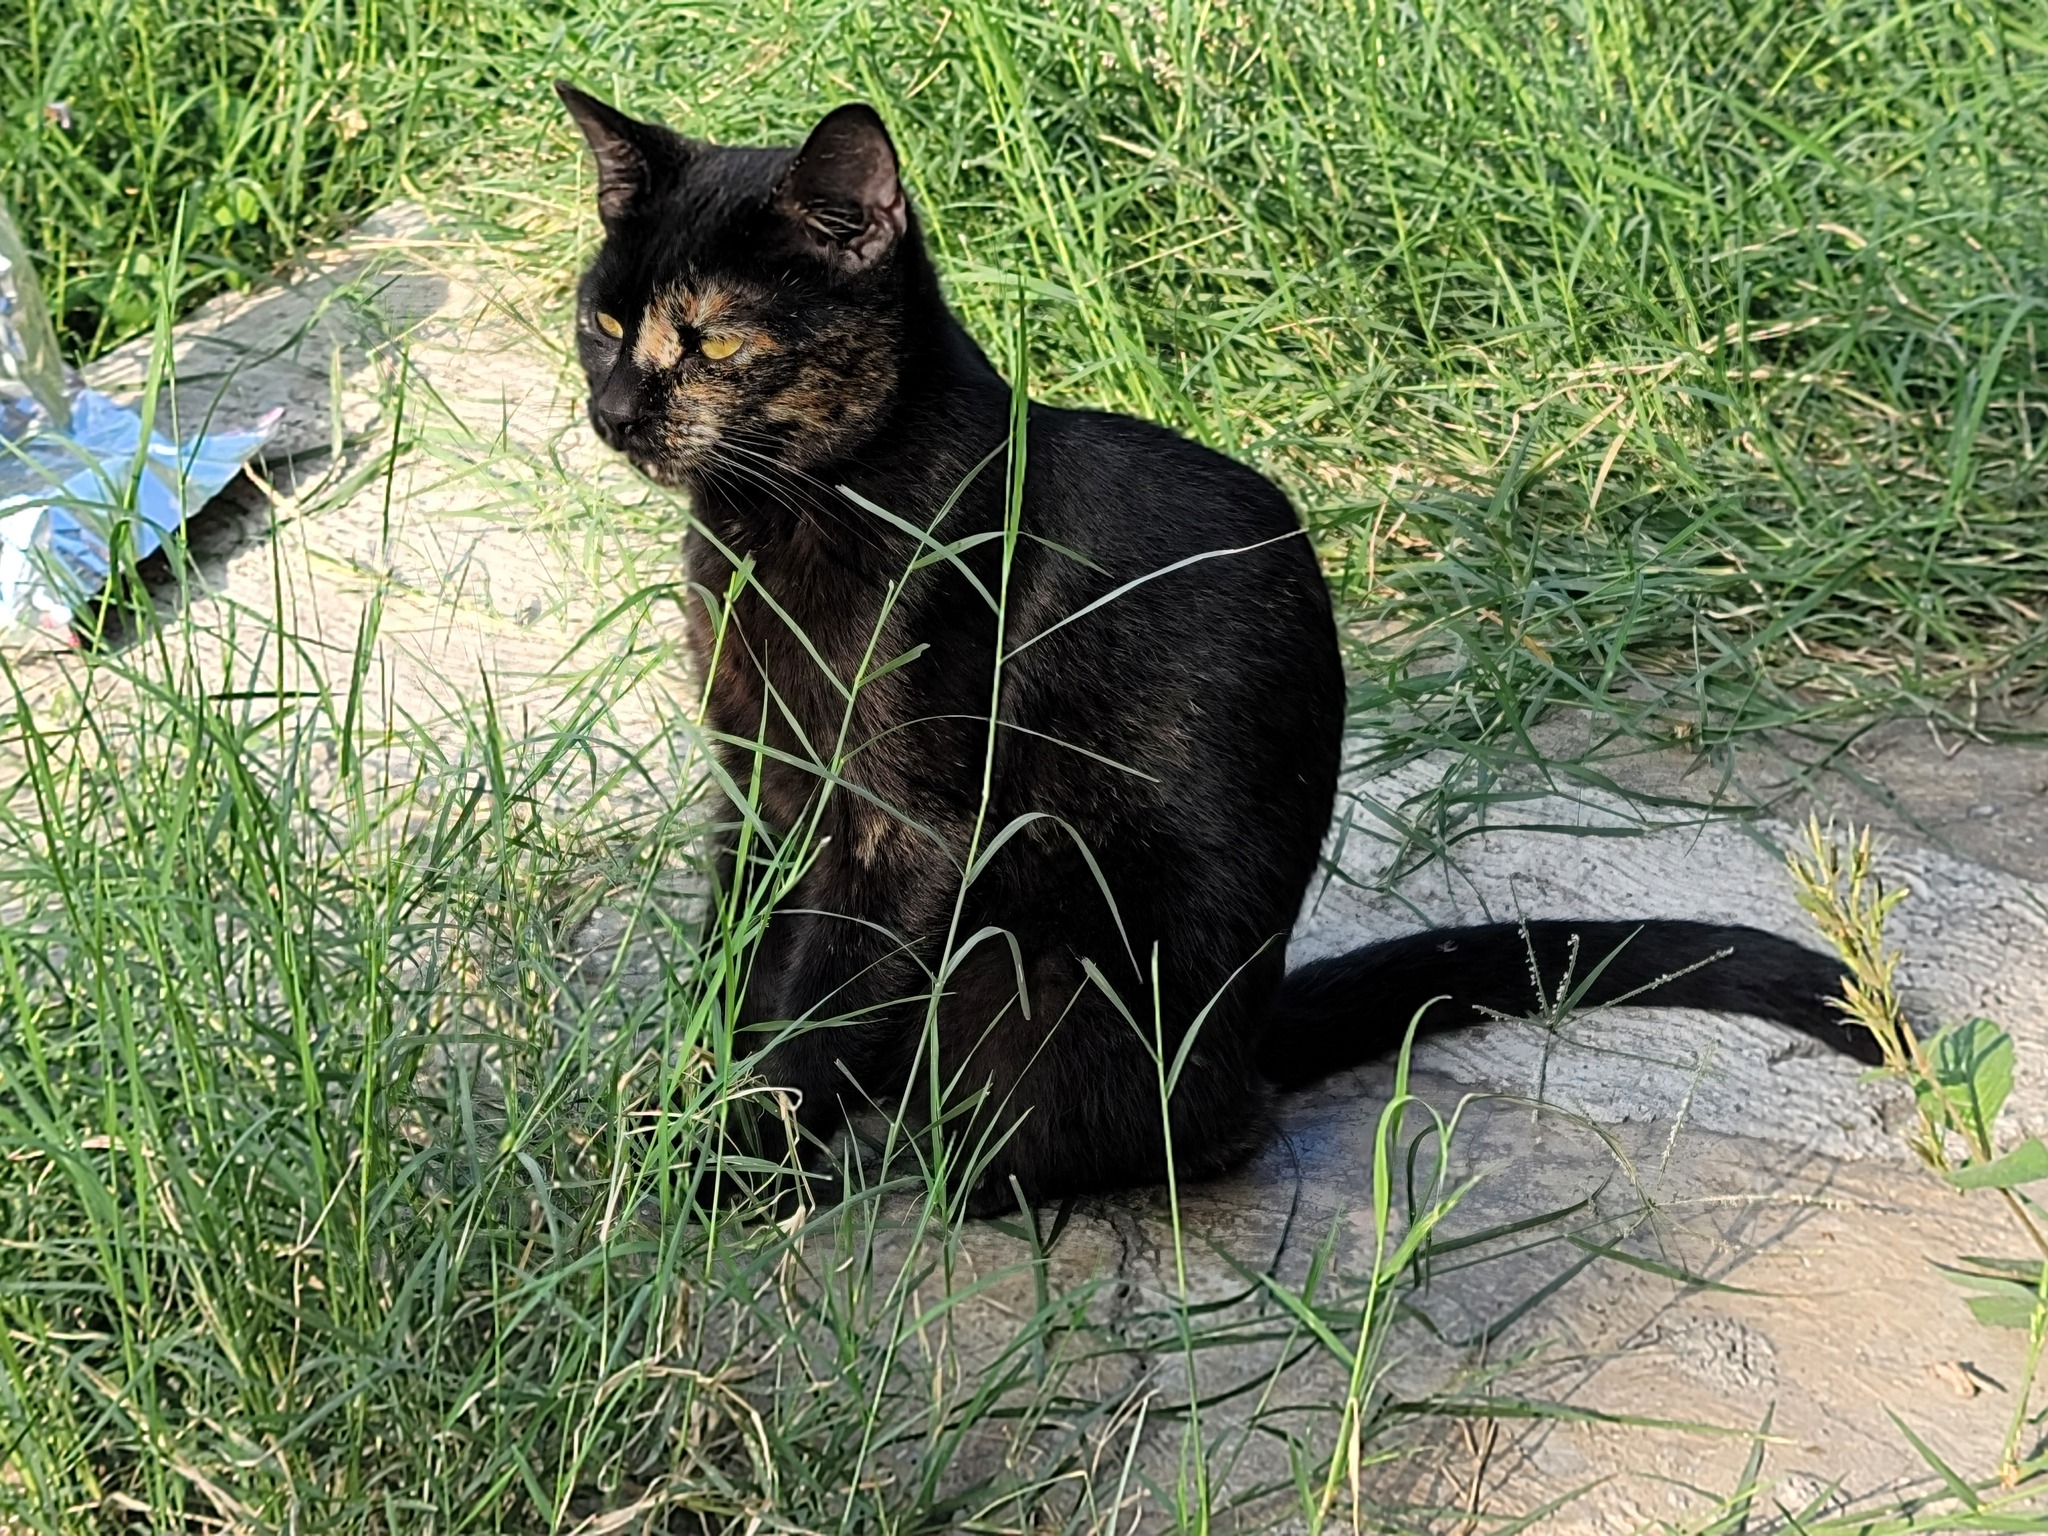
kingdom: Animalia
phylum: Chordata
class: Mammalia
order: Carnivora
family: Felidae
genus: Felis
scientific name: Felis catus
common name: Domestic cat
